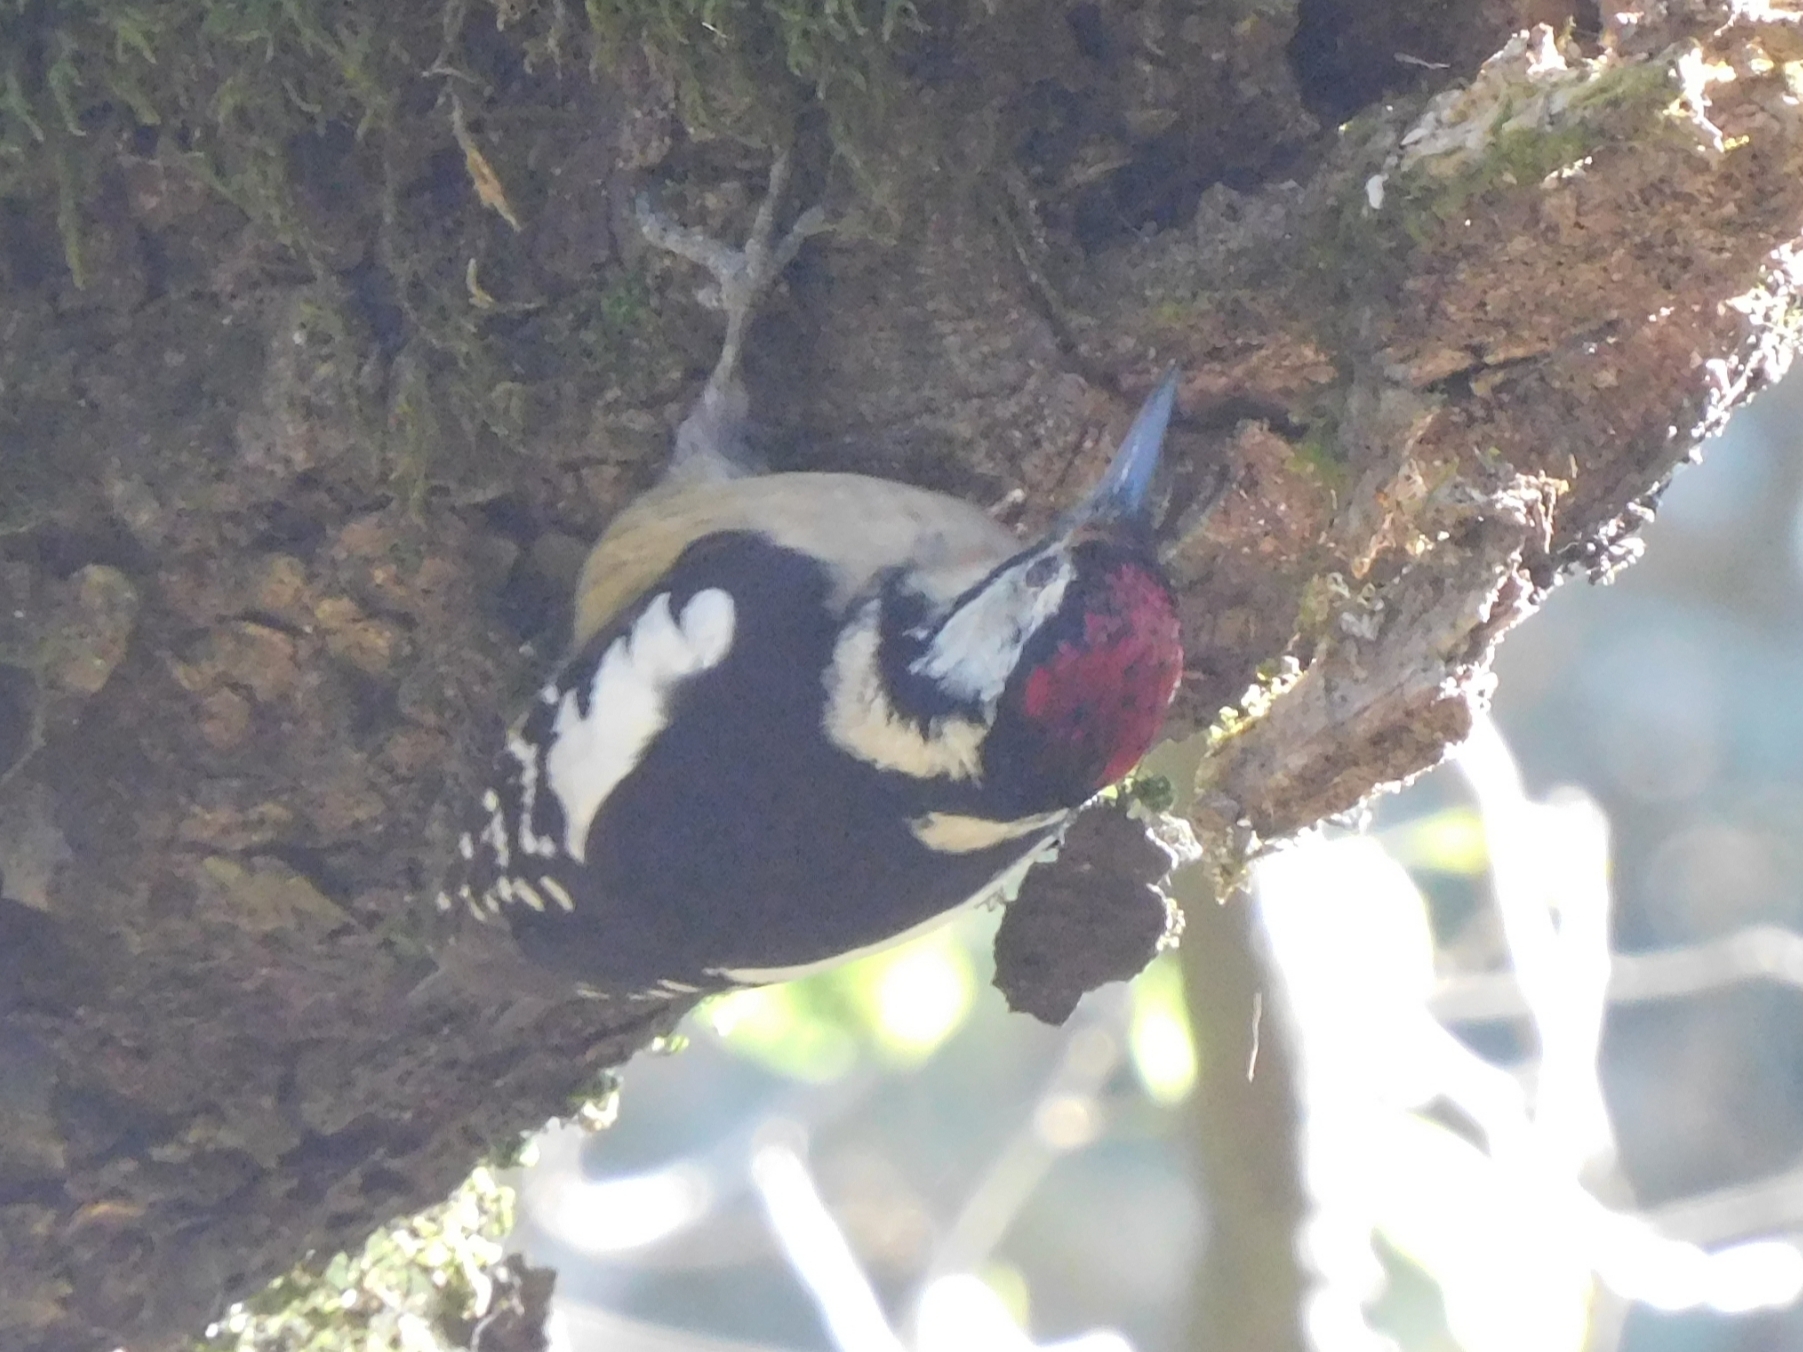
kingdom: Animalia
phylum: Chordata
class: Aves
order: Piciformes
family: Picidae
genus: Dendrocopos
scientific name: Dendrocopos himalayensis
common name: Himalayan woodpecker
